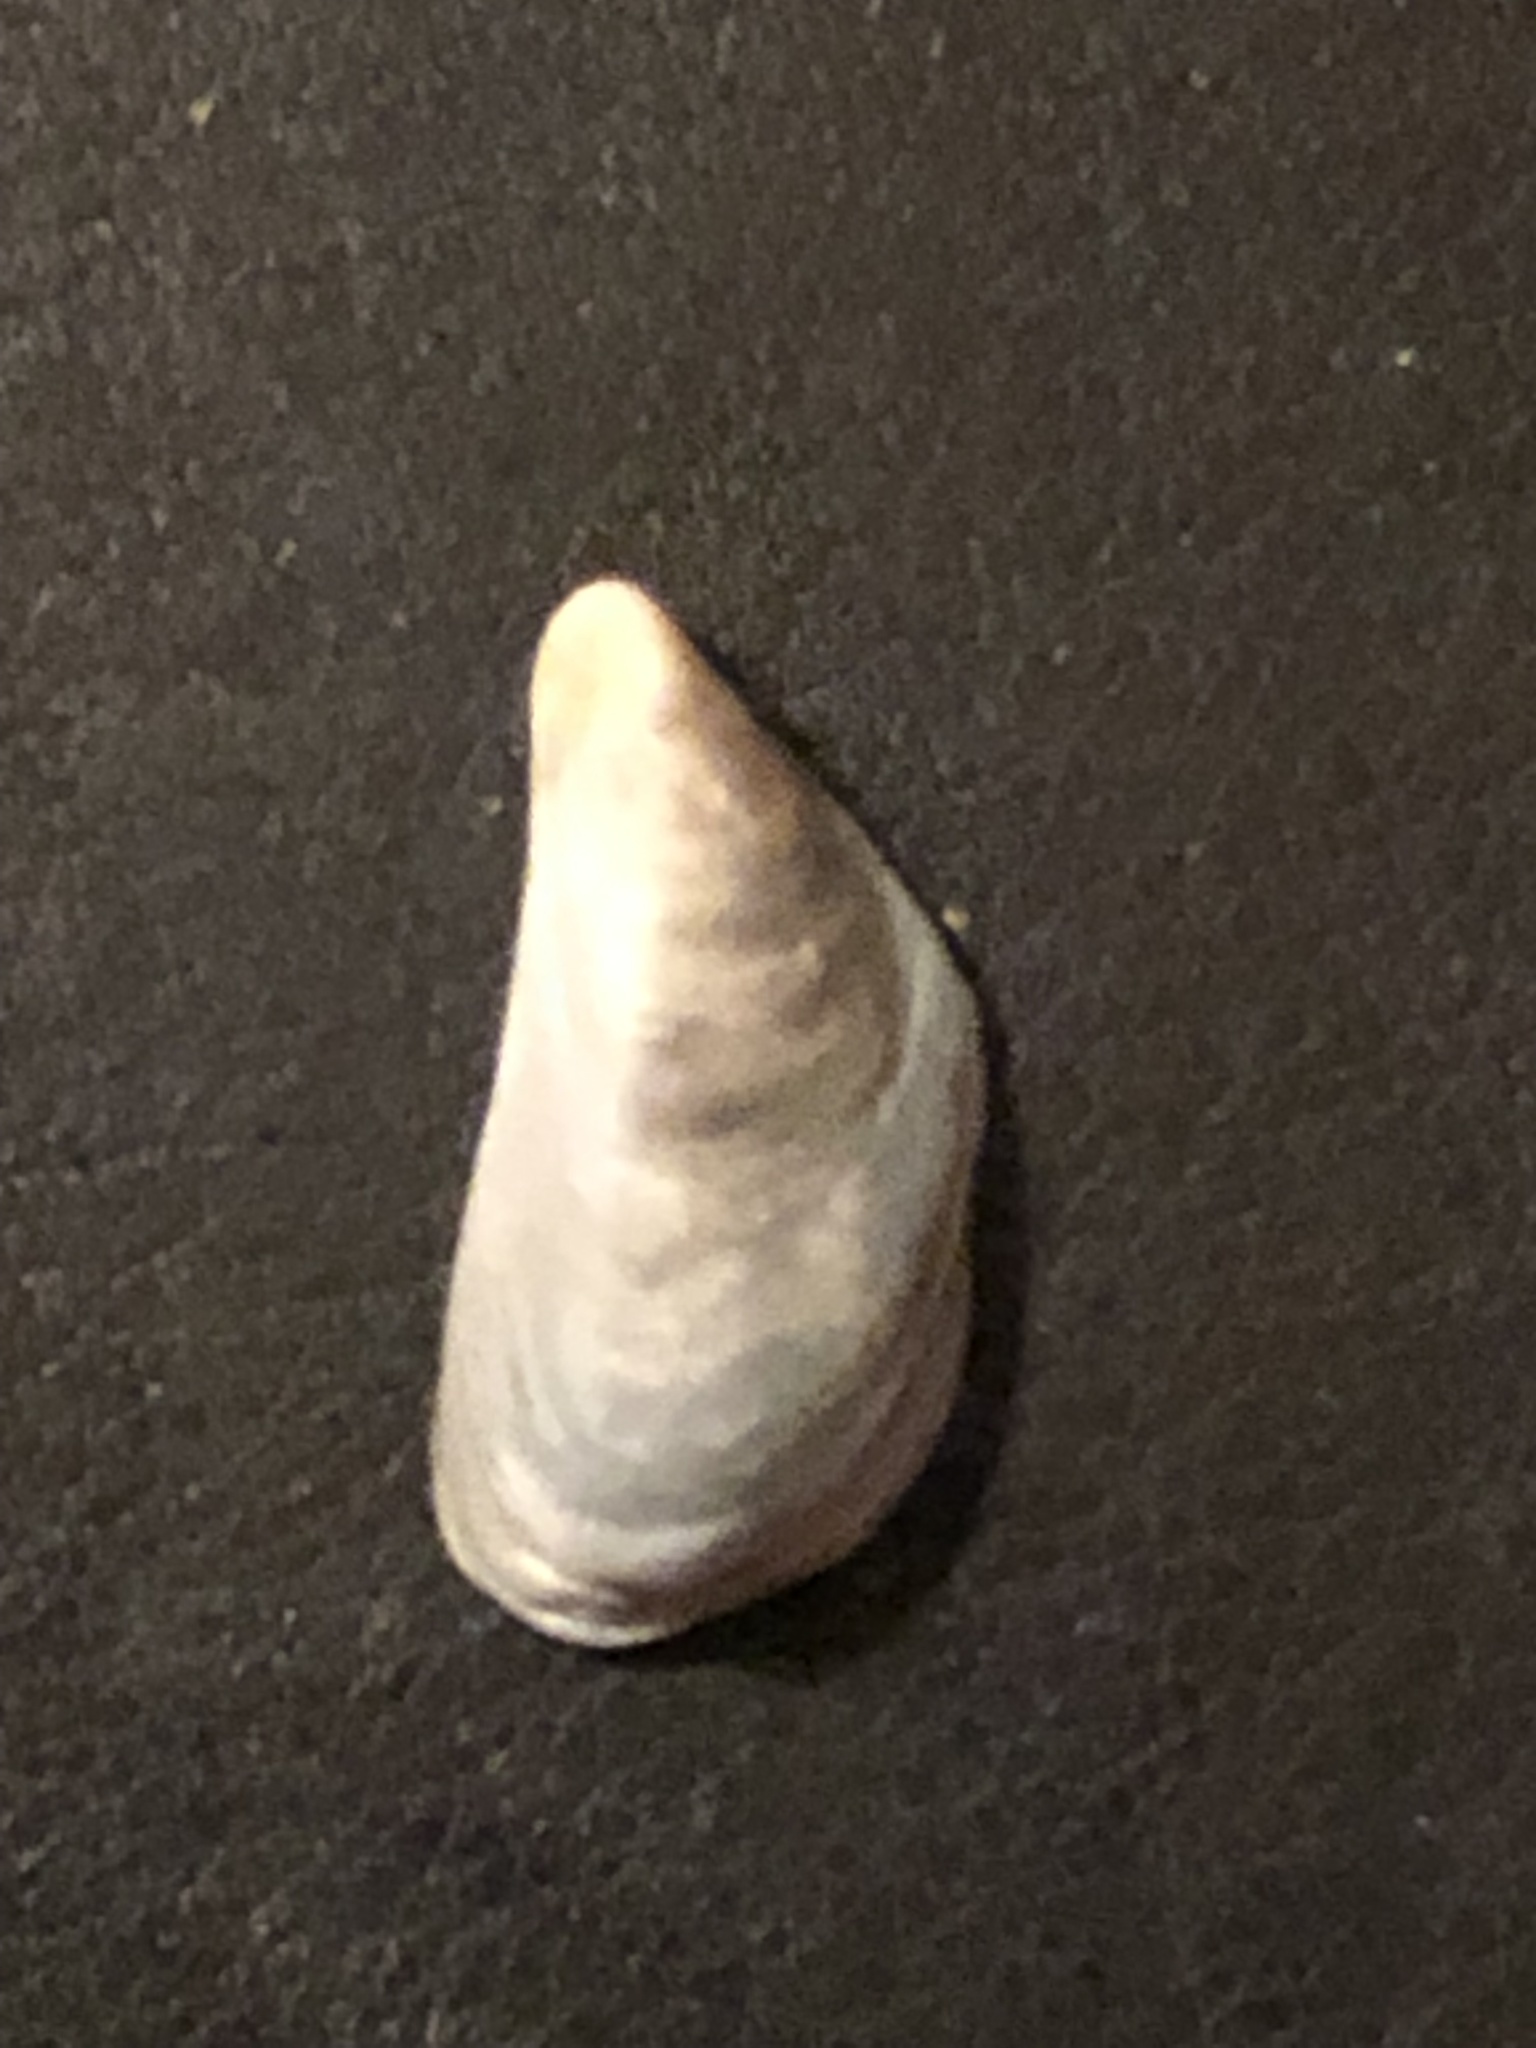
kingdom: Animalia
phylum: Mollusca
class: Bivalvia
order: Myida
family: Dreissenidae
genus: Dreissena
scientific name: Dreissena bugensis
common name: Quagga mussel
